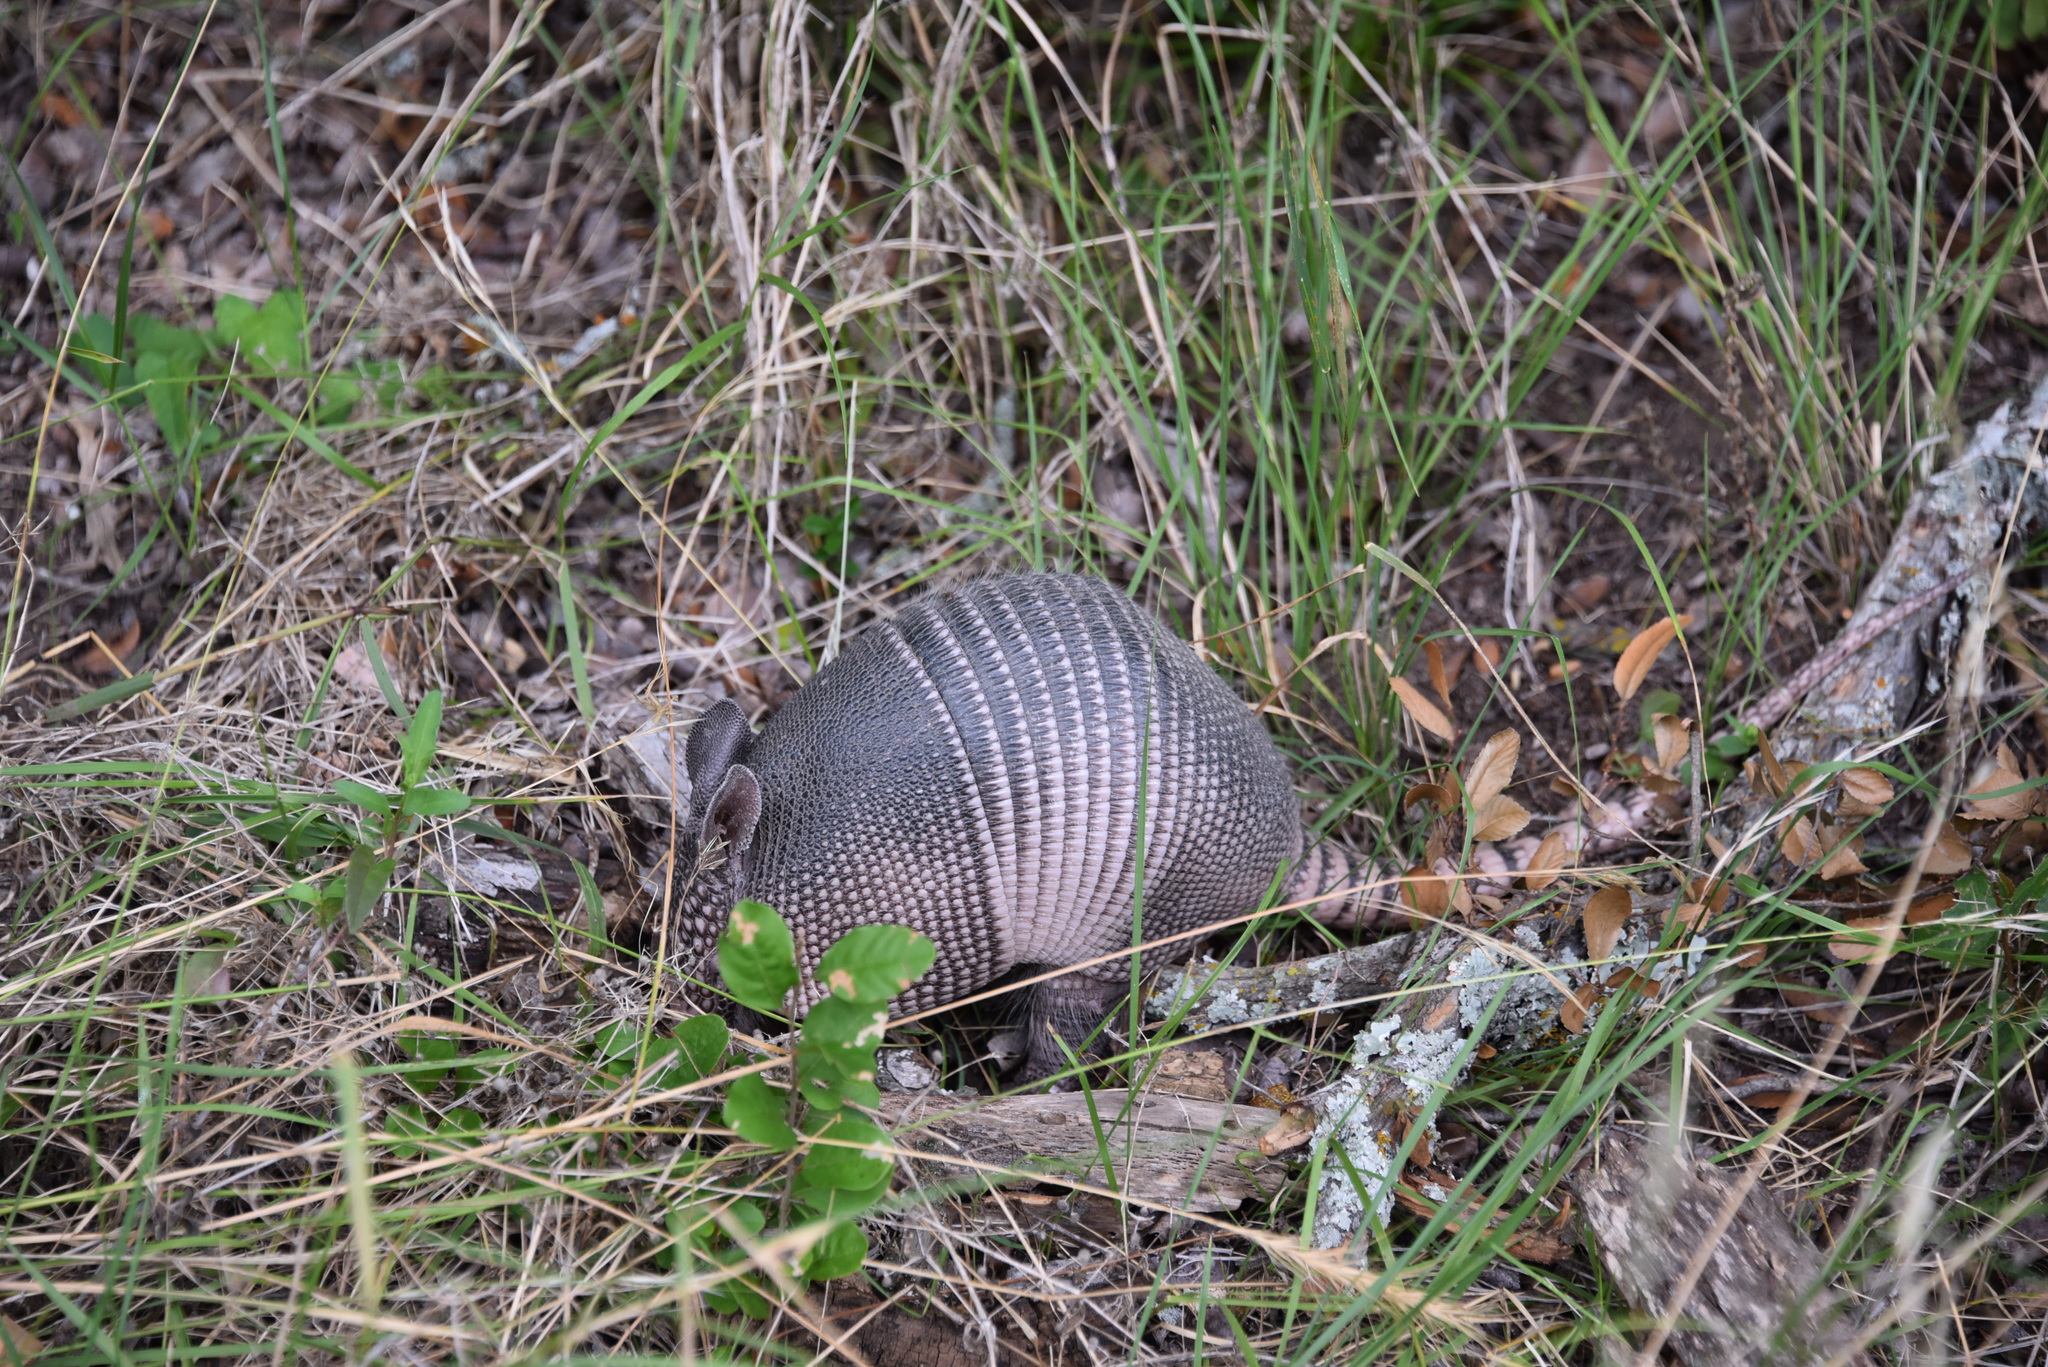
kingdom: Animalia
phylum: Chordata
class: Mammalia
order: Cingulata
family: Dasypodidae
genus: Dasypus
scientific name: Dasypus novemcinctus
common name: Nine-banded armadillo
